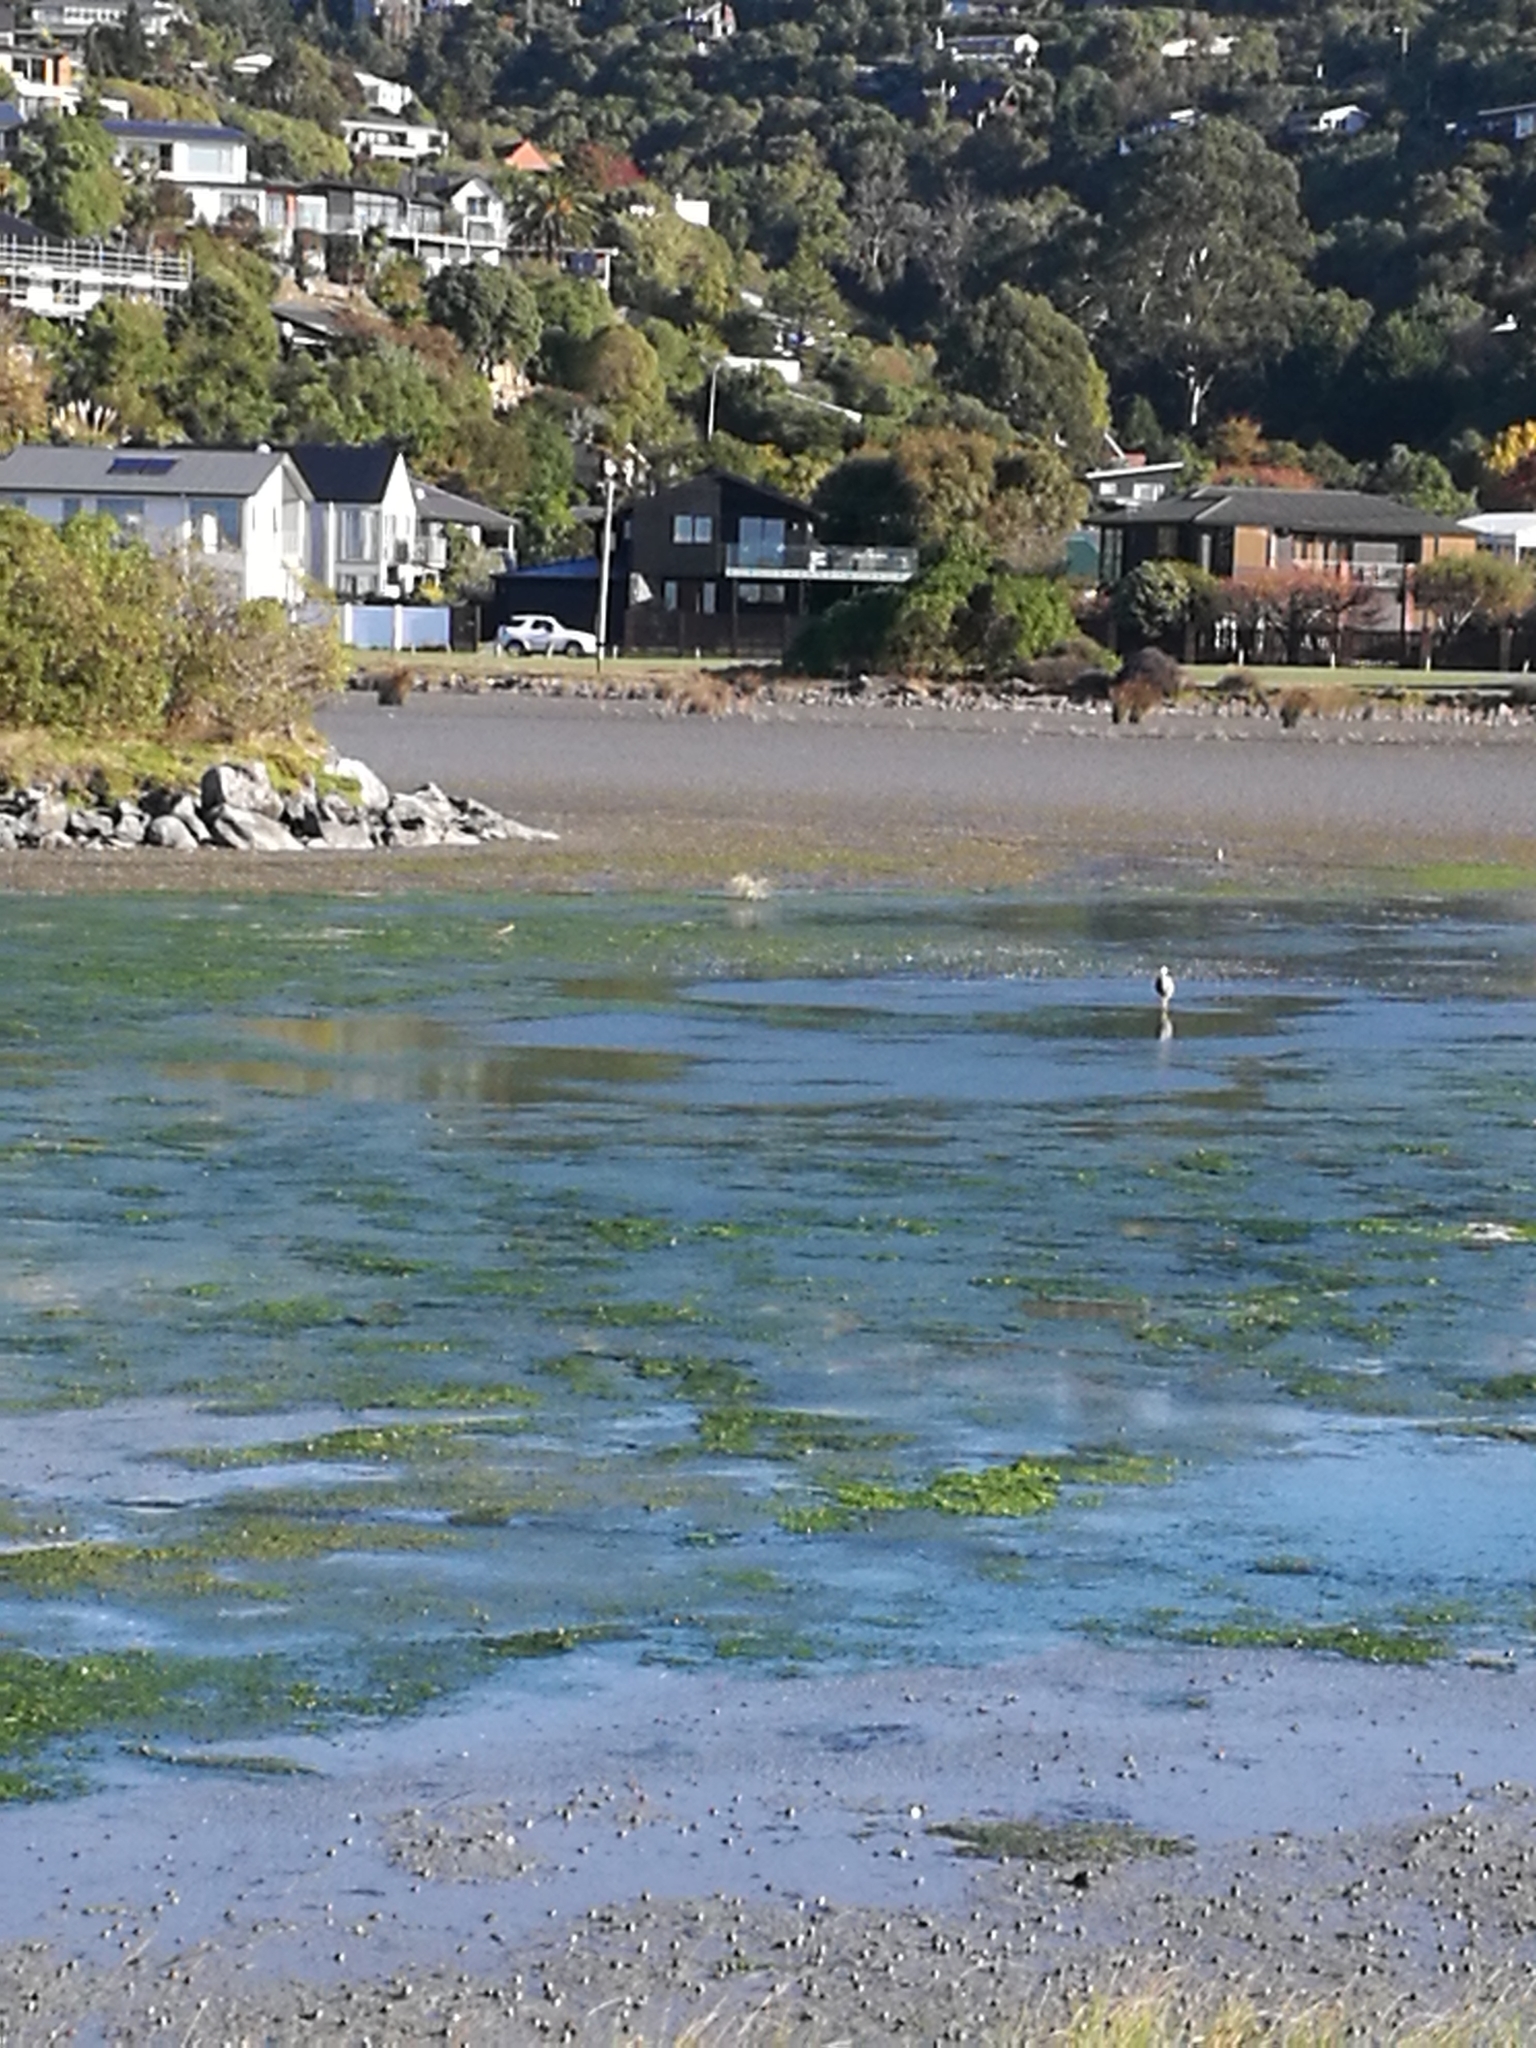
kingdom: Animalia
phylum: Chordata
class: Aves
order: Pelecaniformes
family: Ardeidae
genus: Egretta
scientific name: Egretta novaehollandiae
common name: White-faced heron
